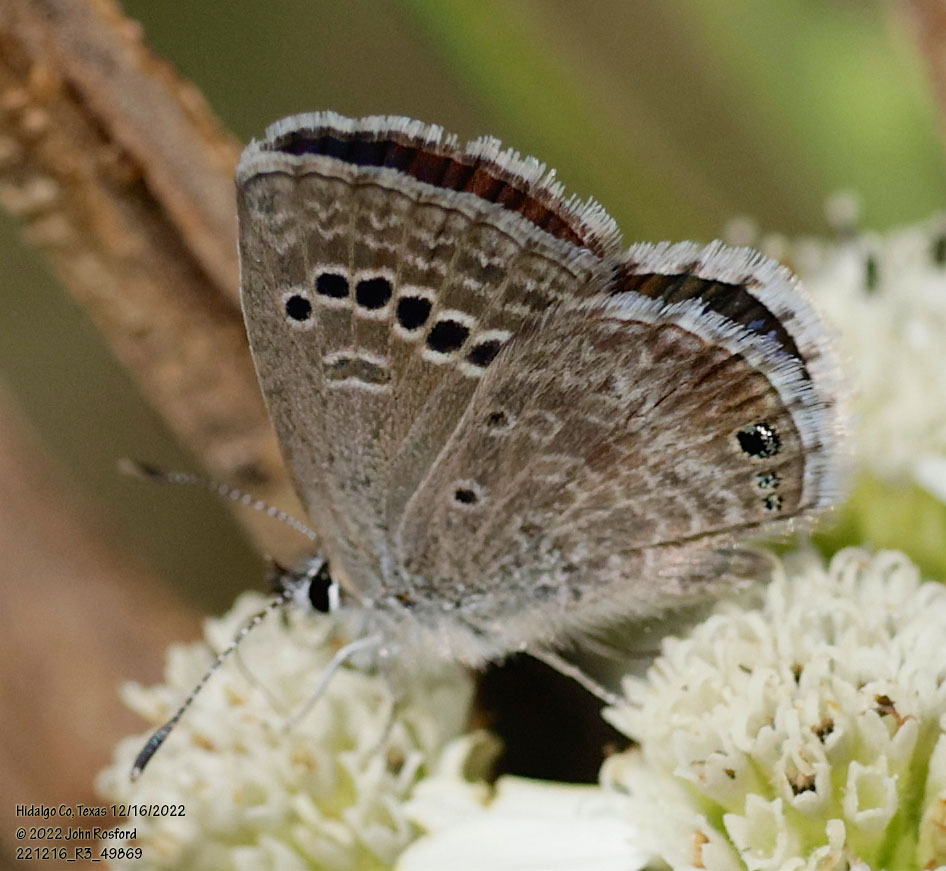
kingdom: Animalia
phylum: Arthropoda
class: Insecta
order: Lepidoptera
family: Lycaenidae
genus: Echinargus
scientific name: Echinargus isola
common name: Reakirt's blue
